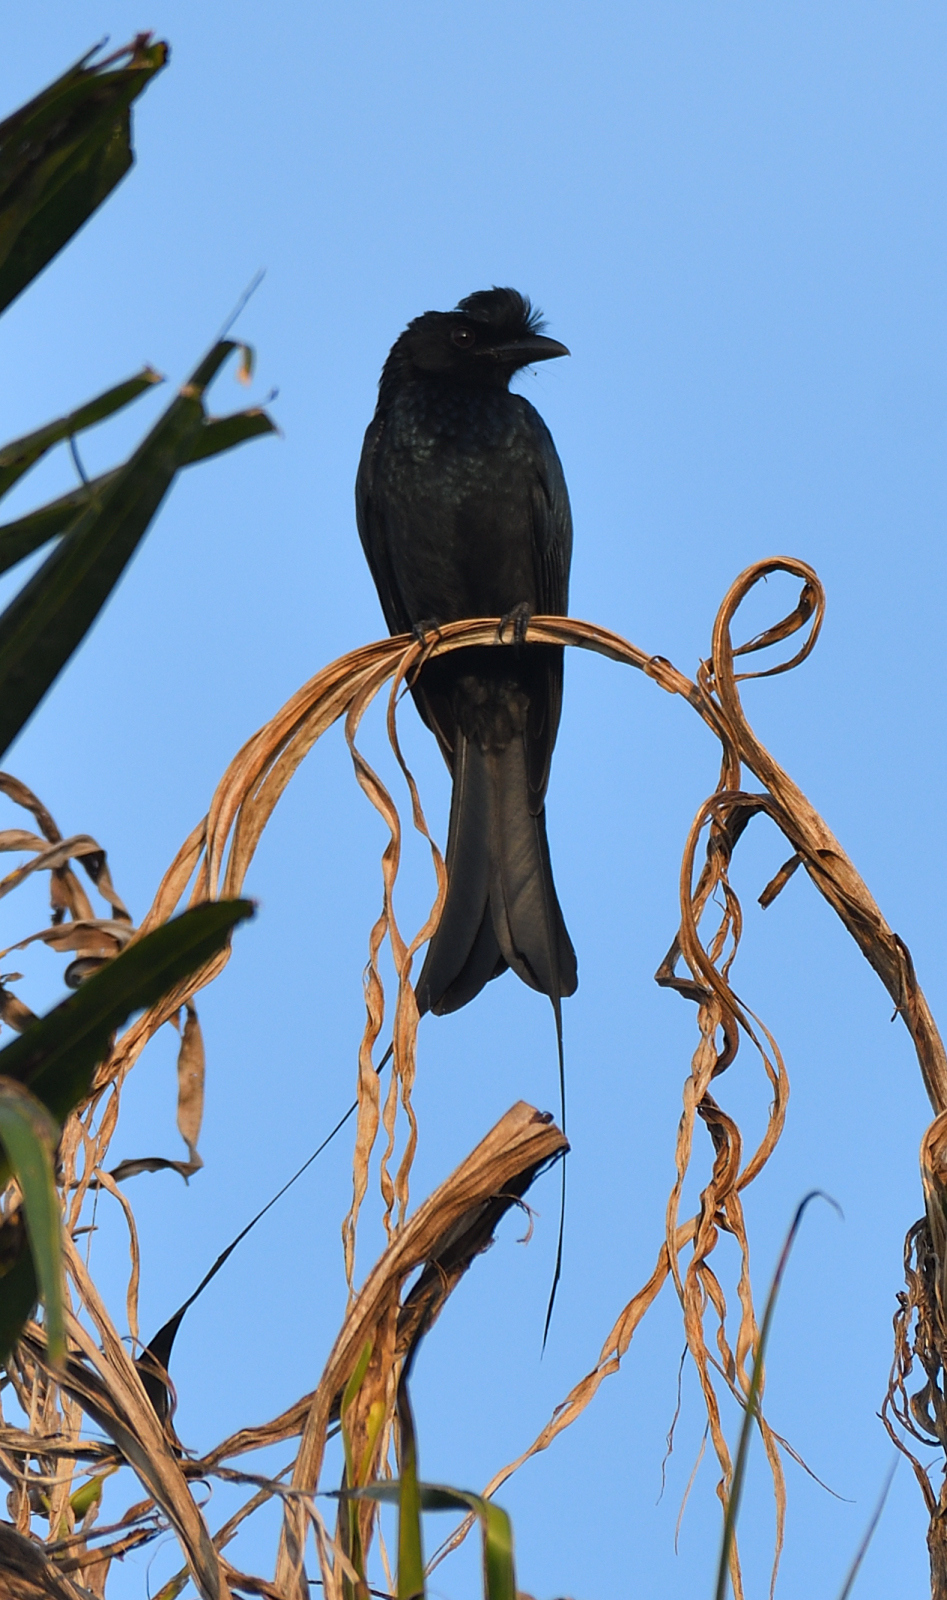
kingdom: Animalia
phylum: Chordata
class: Aves
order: Passeriformes
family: Dicruridae
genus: Dicrurus
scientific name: Dicrurus paradiseus
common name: Greater racket-tailed drongo
